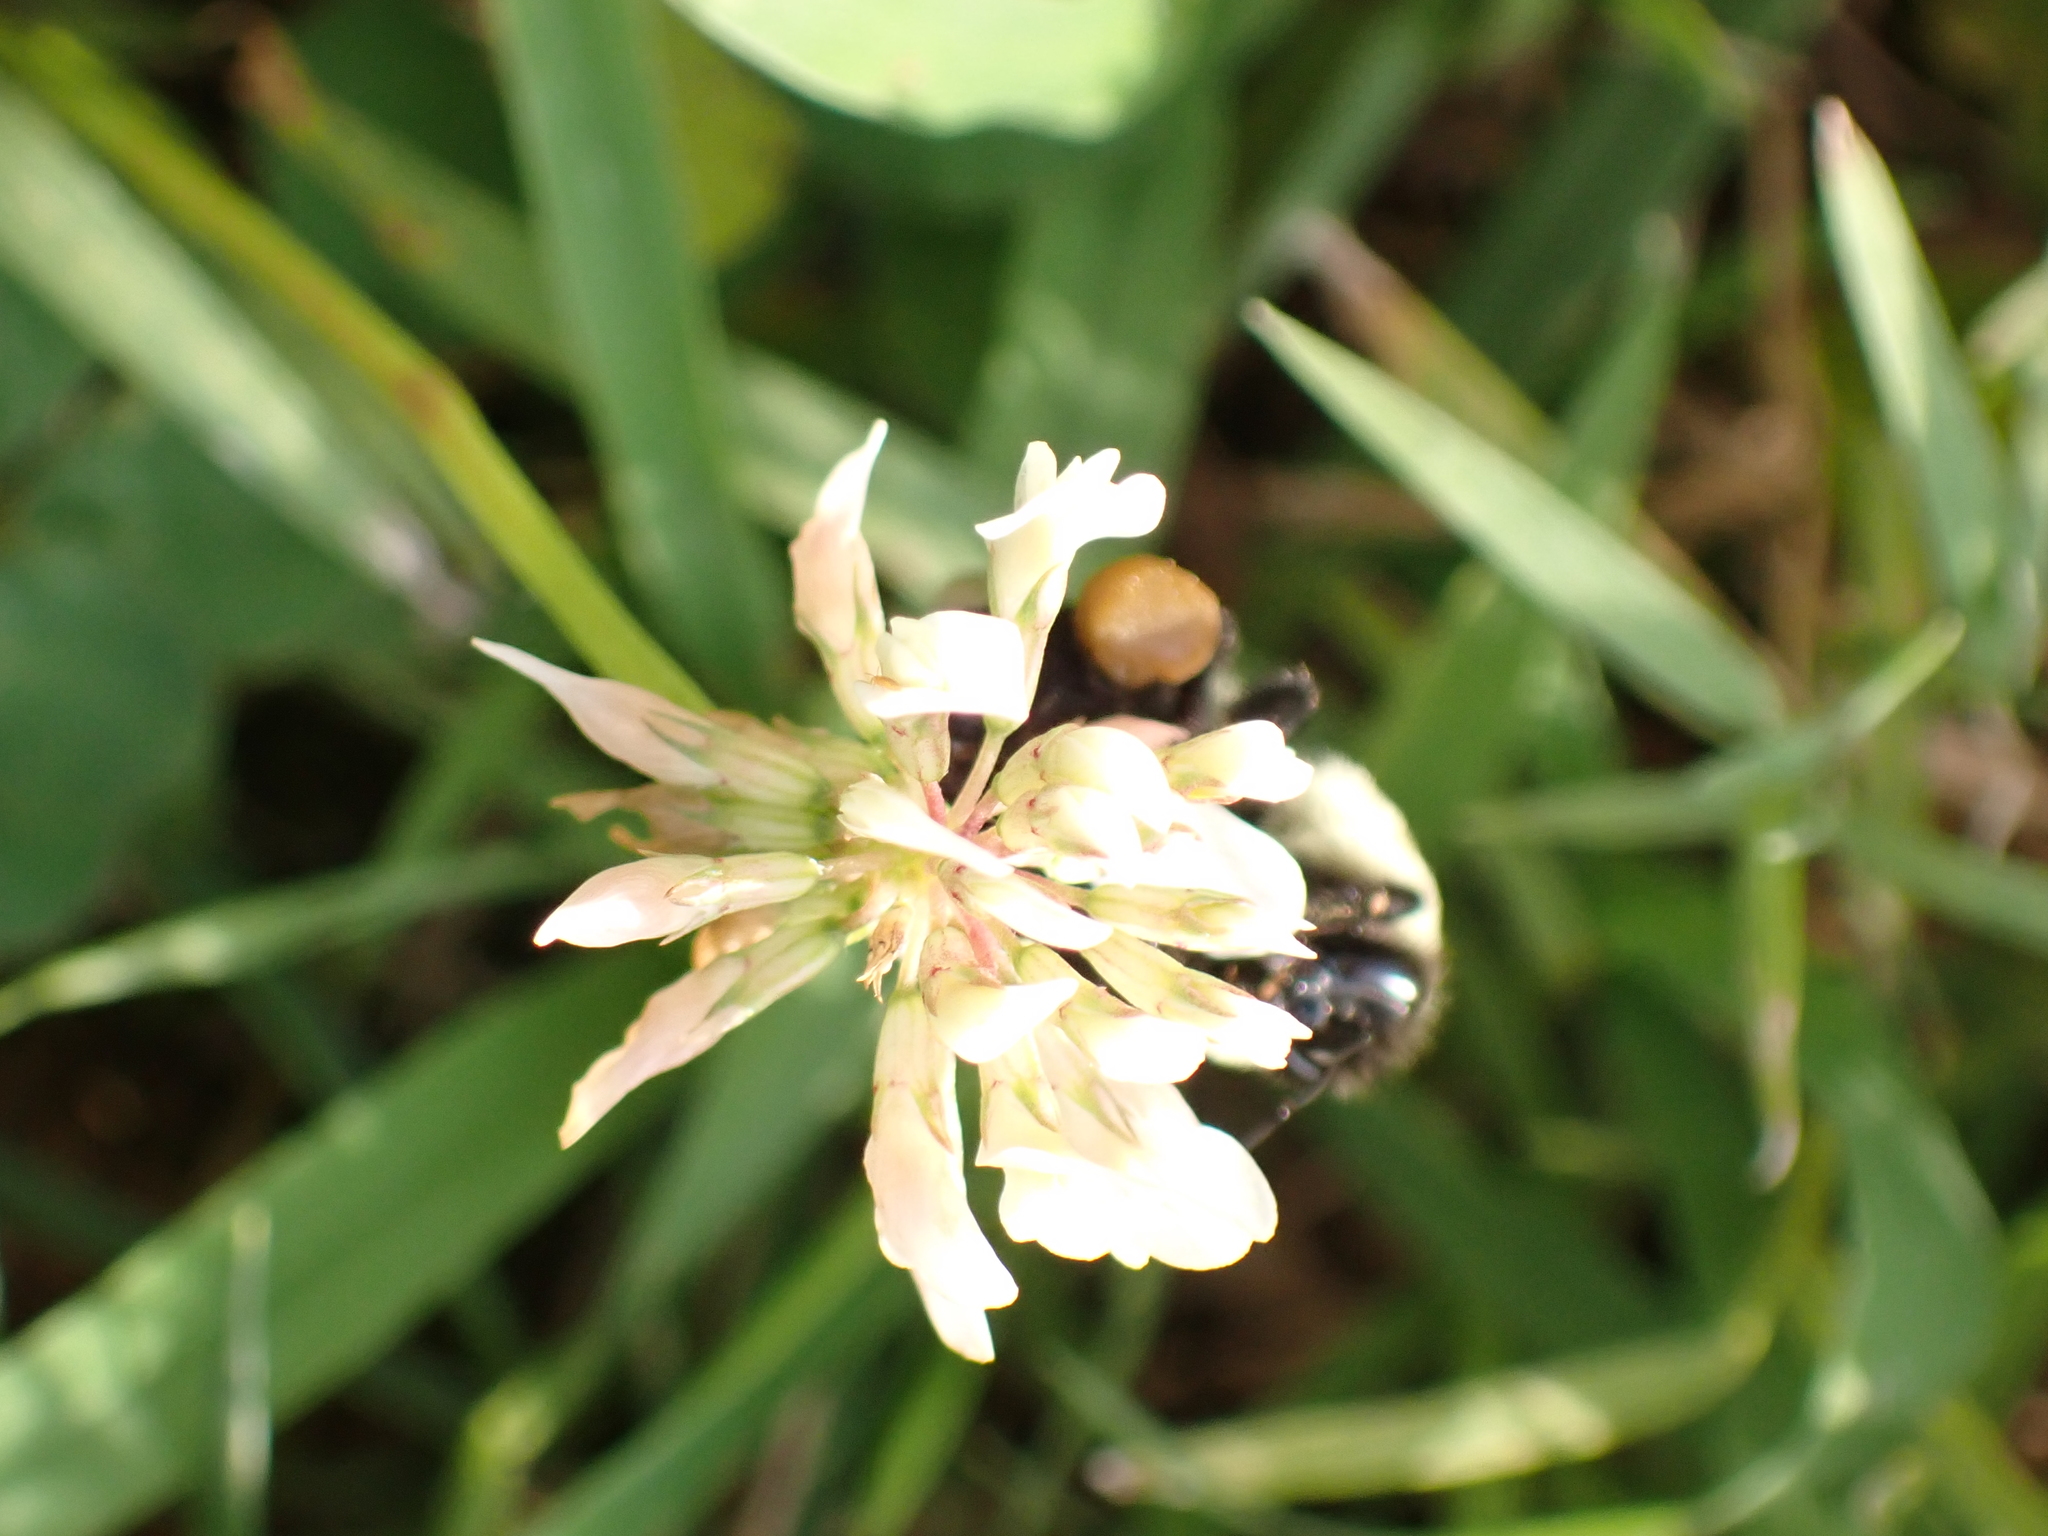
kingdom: Animalia
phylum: Arthropoda
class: Insecta
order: Hymenoptera
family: Apidae
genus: Bombus
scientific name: Bombus impatiens
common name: Common eastern bumble bee
